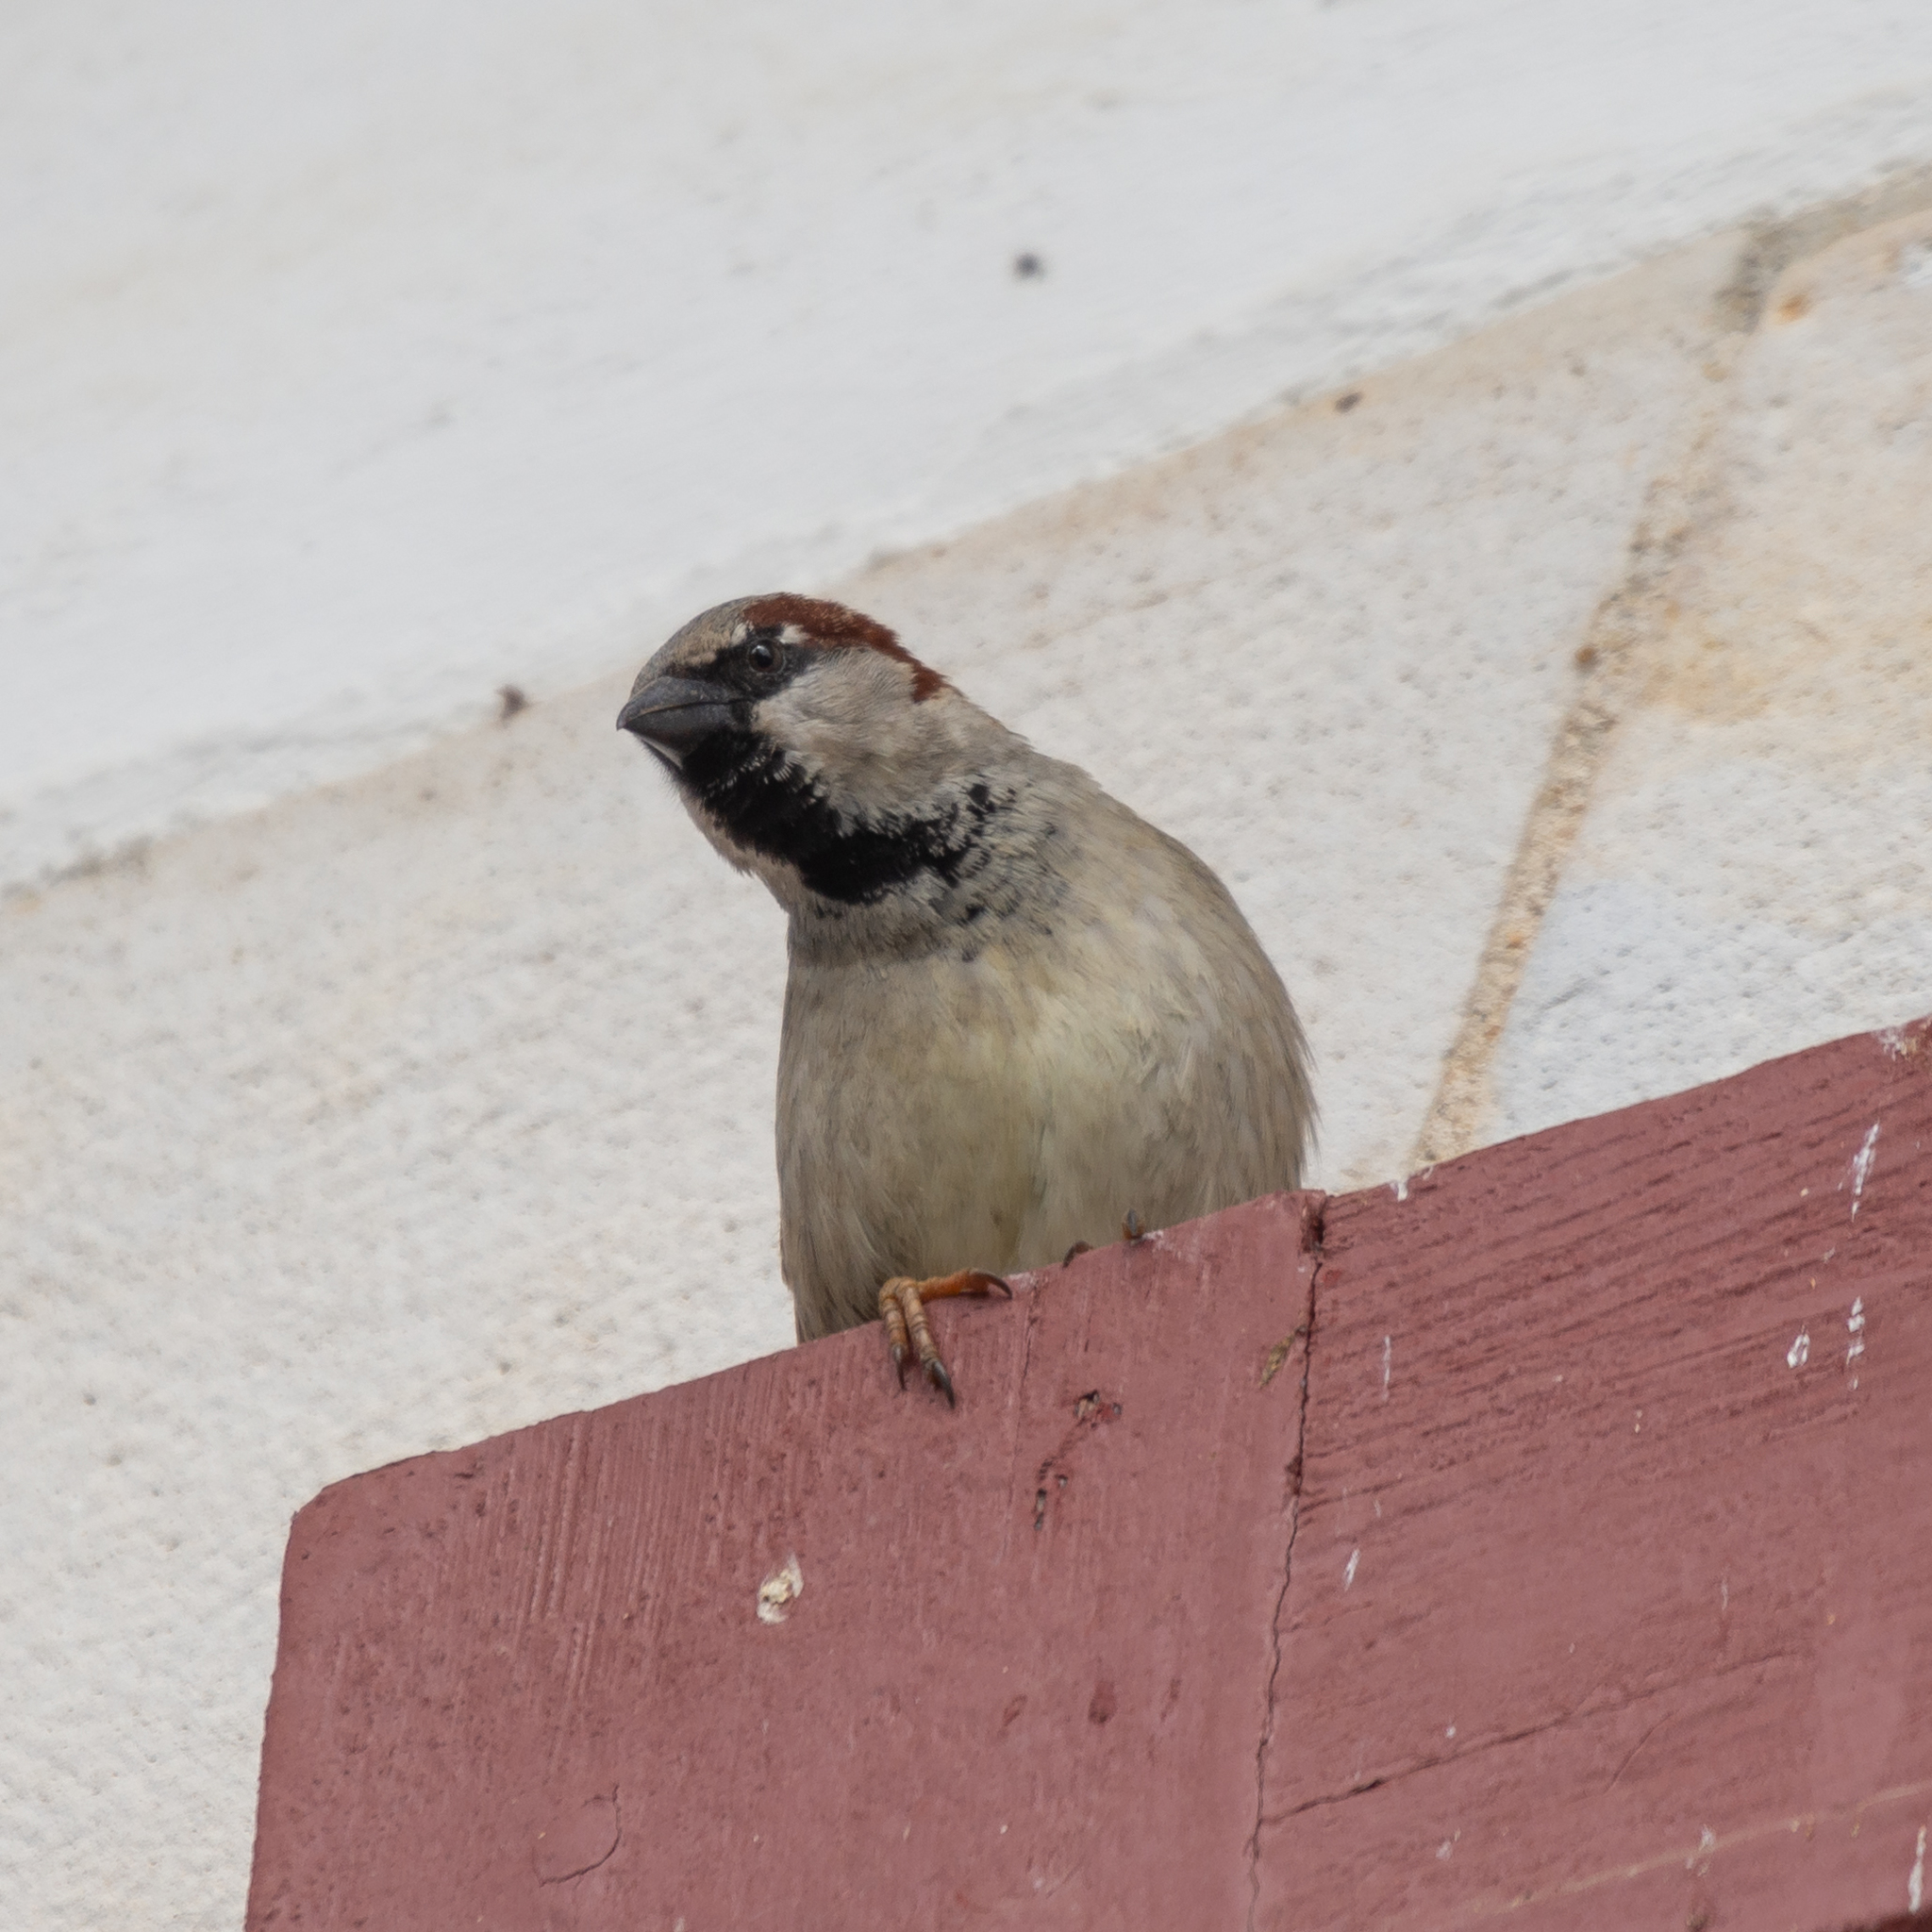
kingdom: Animalia
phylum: Chordata
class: Aves
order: Passeriformes
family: Passeridae
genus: Passer
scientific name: Passer domesticus
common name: House sparrow
